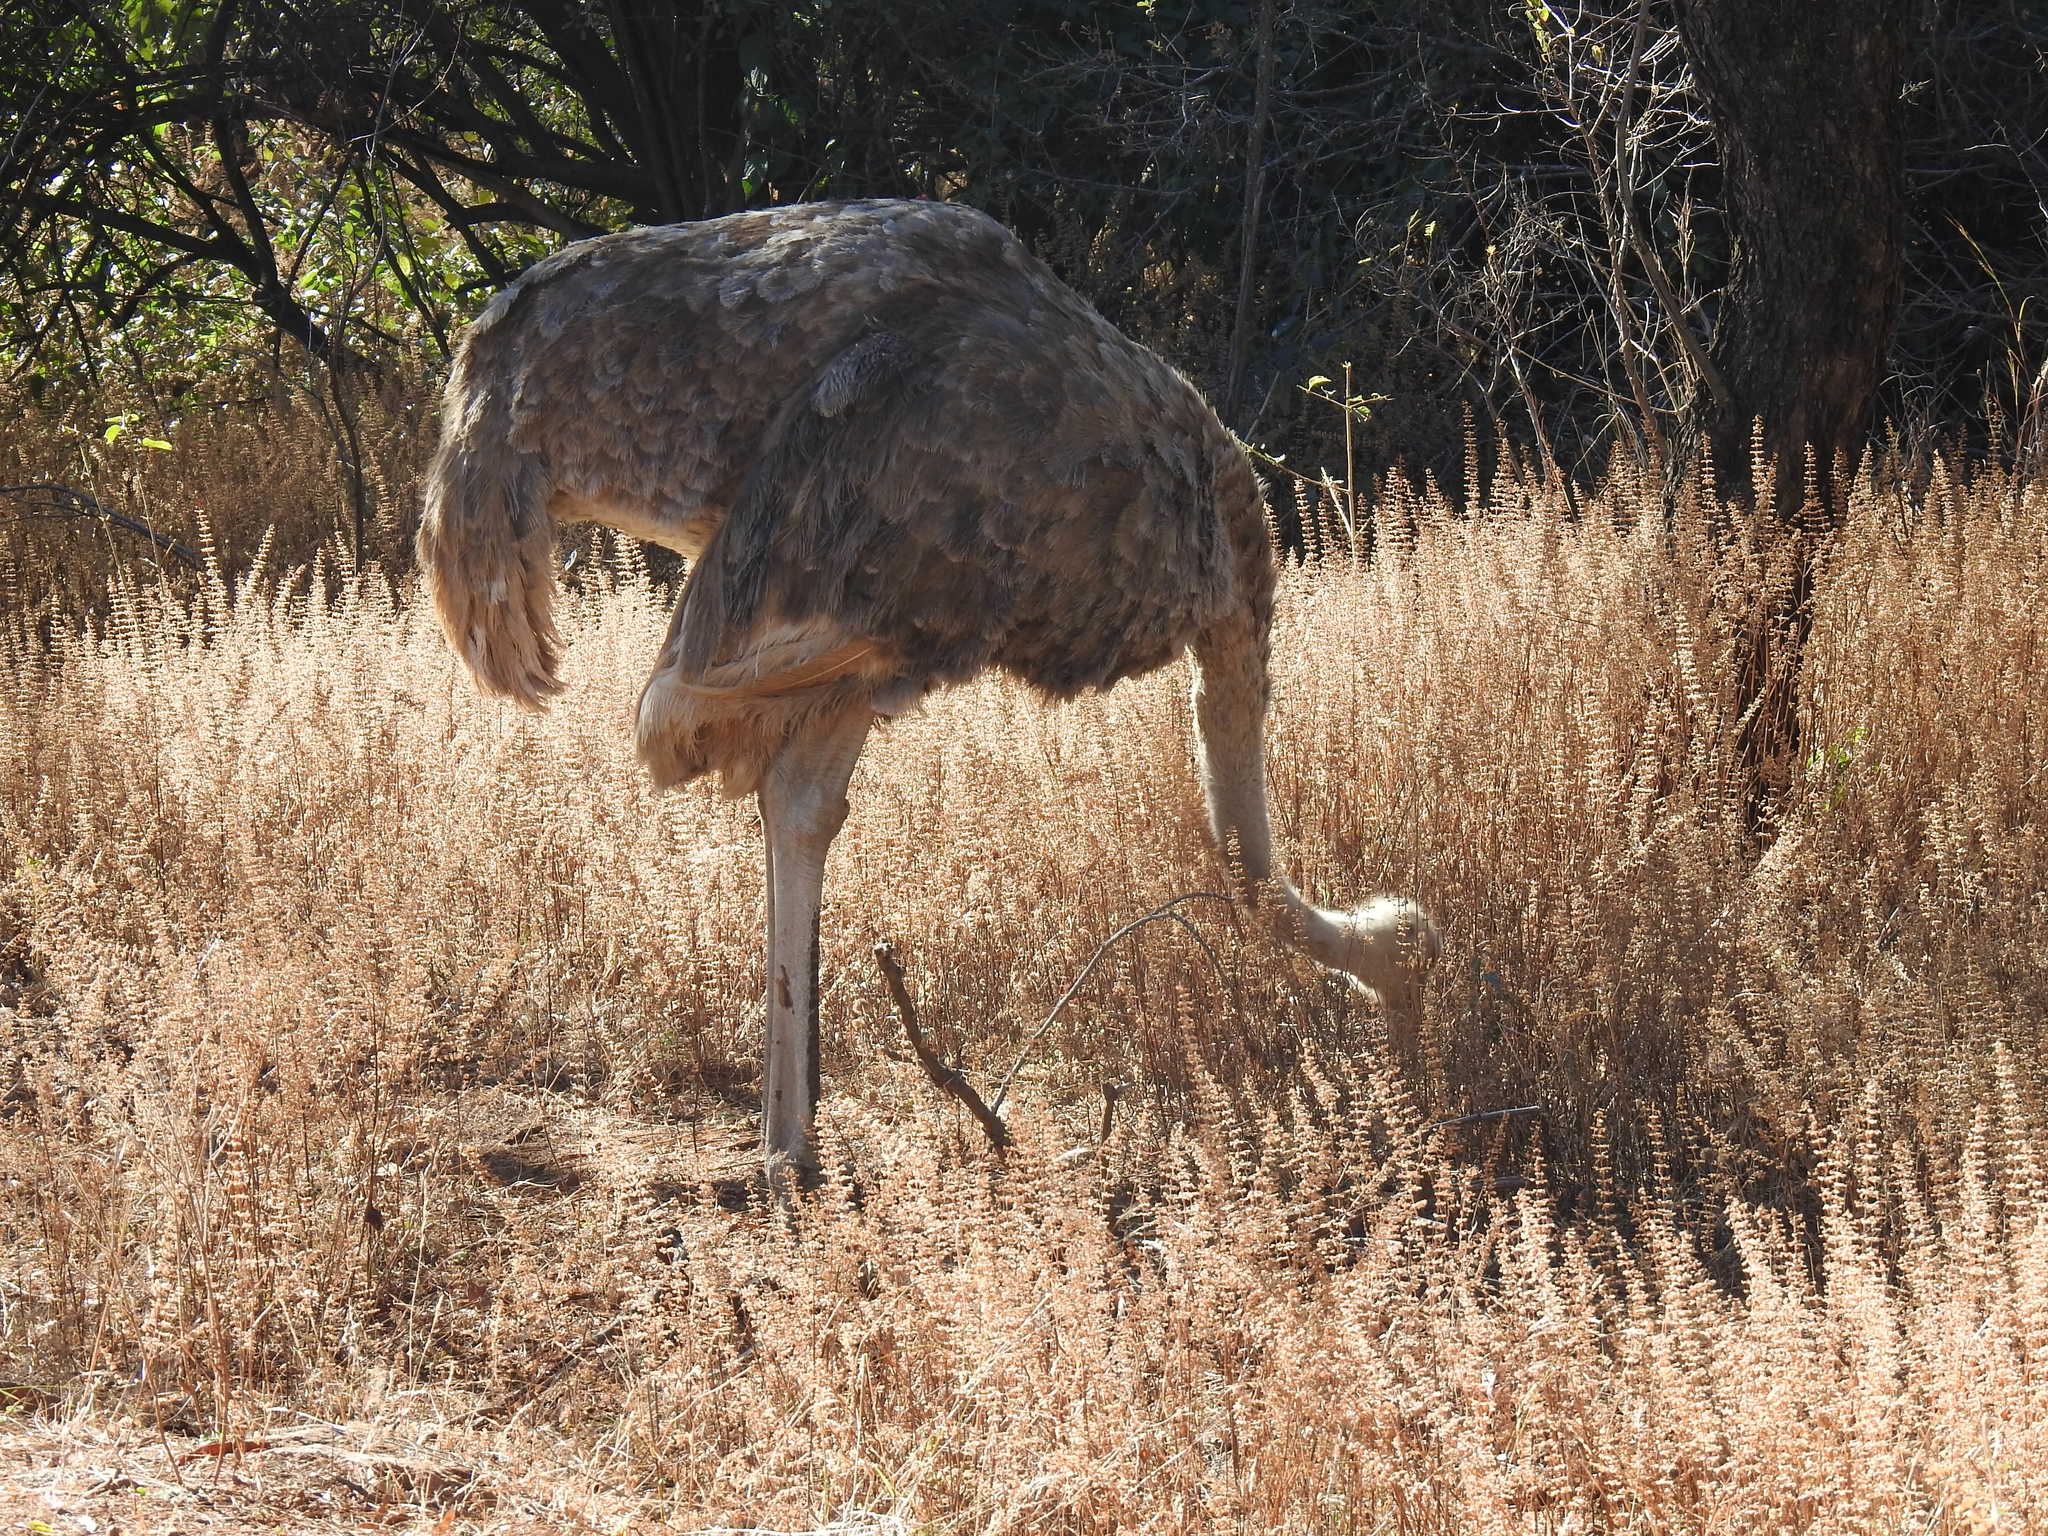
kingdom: Animalia
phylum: Chordata
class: Aves
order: Struthioniformes
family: Struthionidae
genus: Struthio
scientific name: Struthio camelus
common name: Common ostrich
